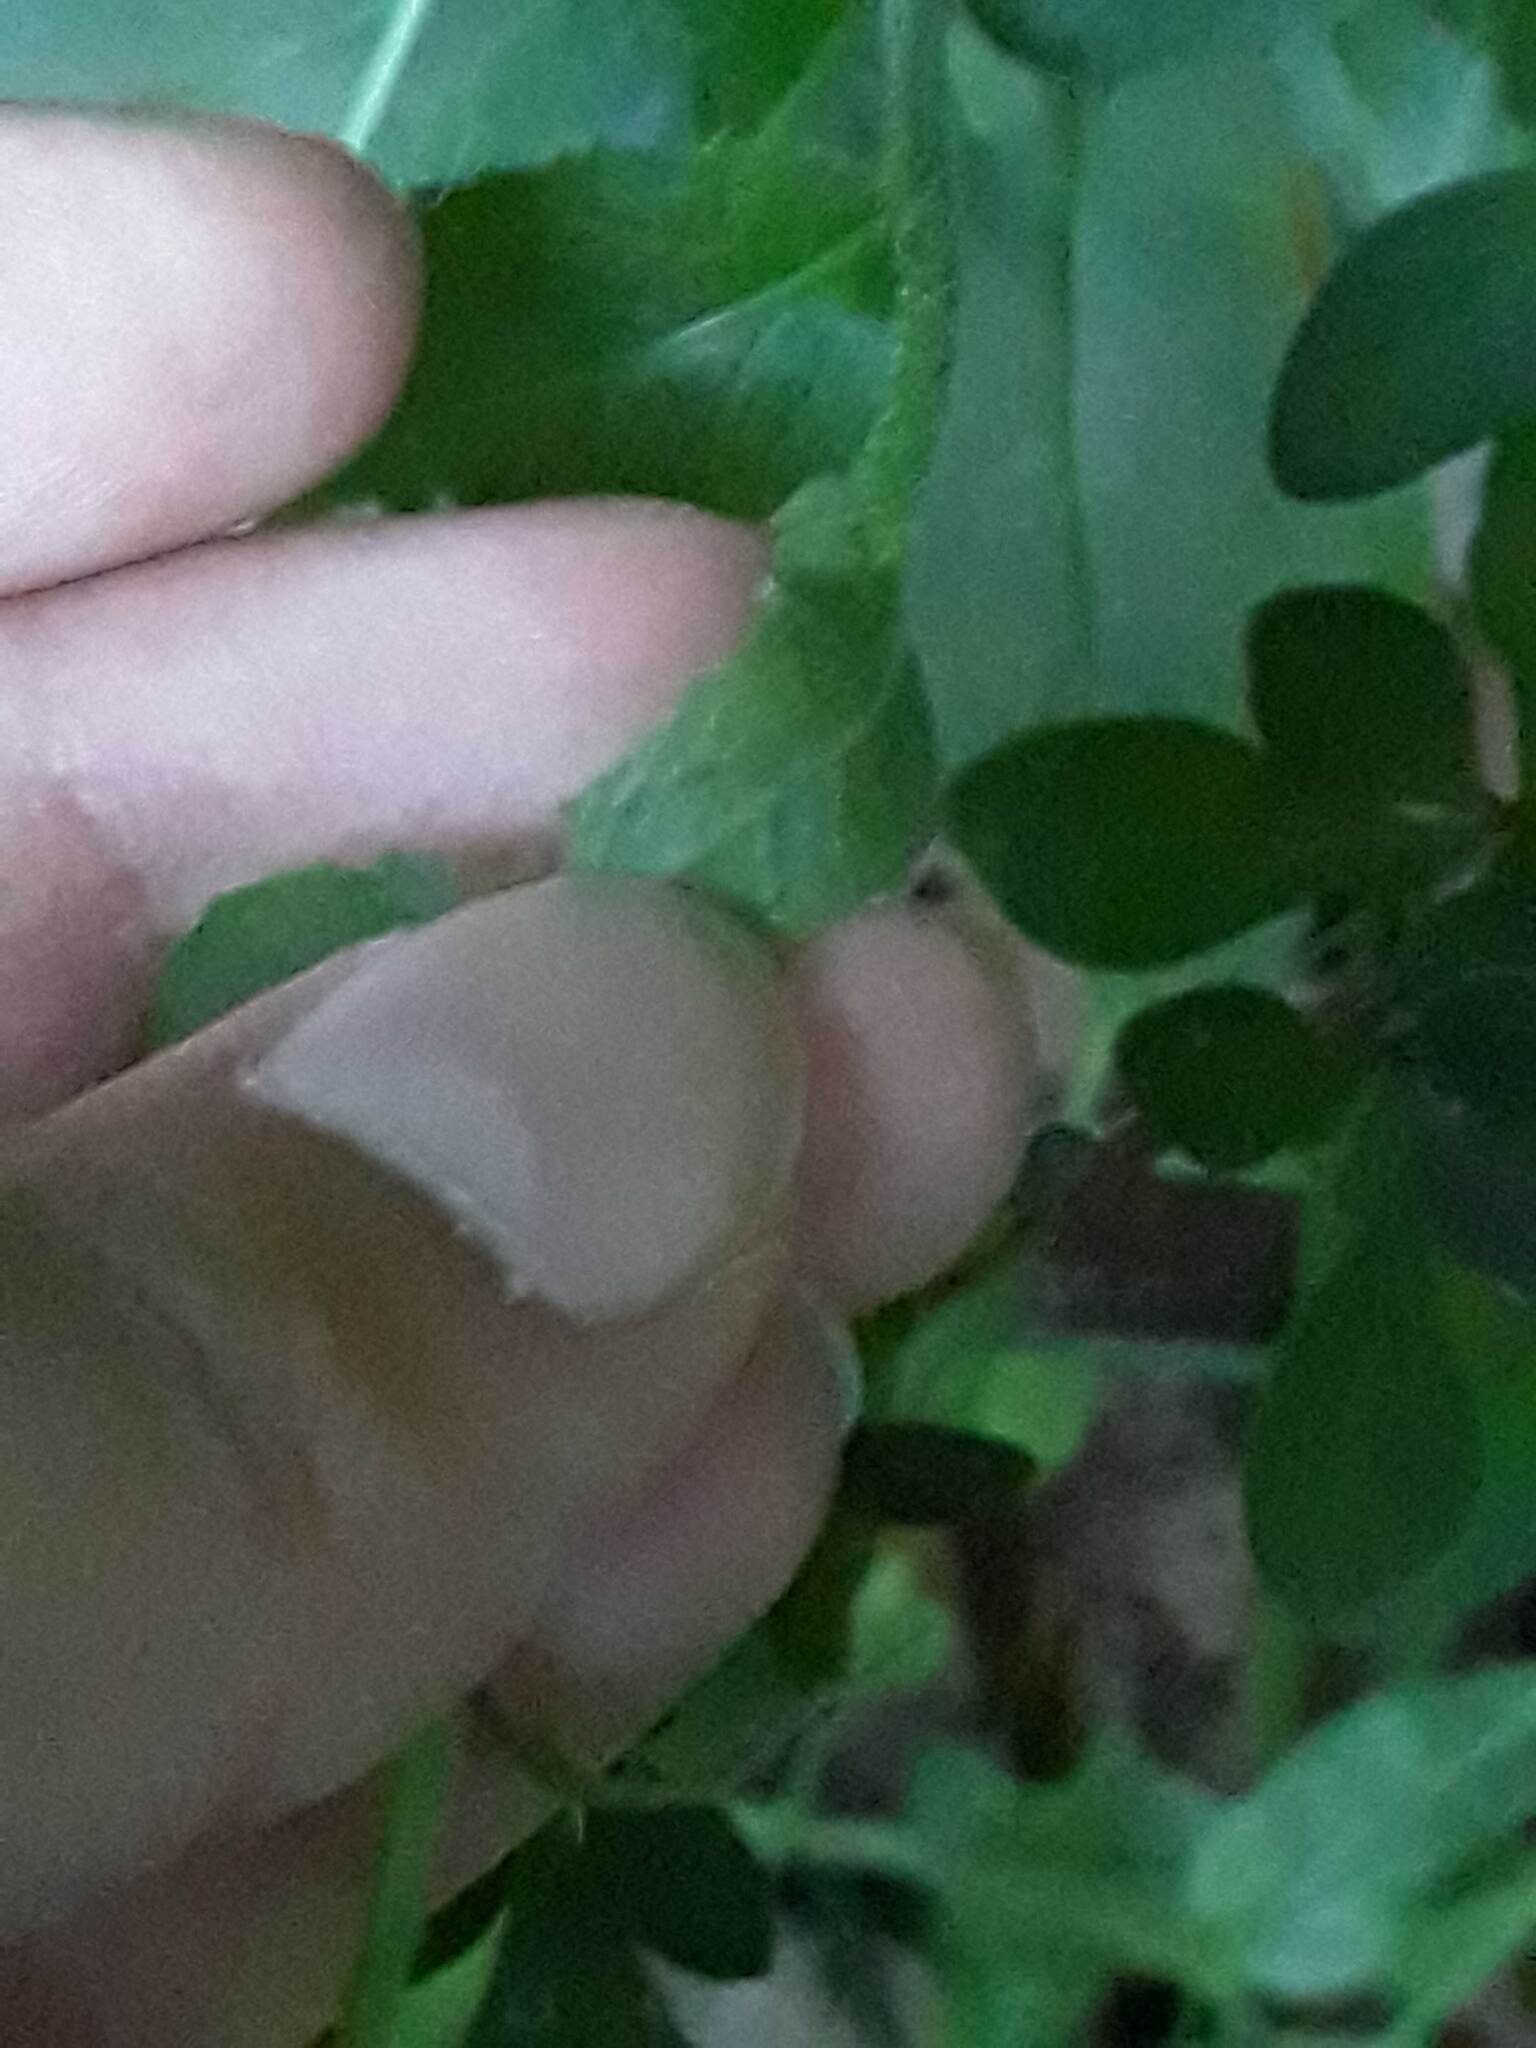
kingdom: Plantae
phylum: Tracheophyta
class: Magnoliopsida
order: Brassicales
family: Brassicaceae
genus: Hesperis
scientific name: Hesperis matronalis
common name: Dame's-violet
